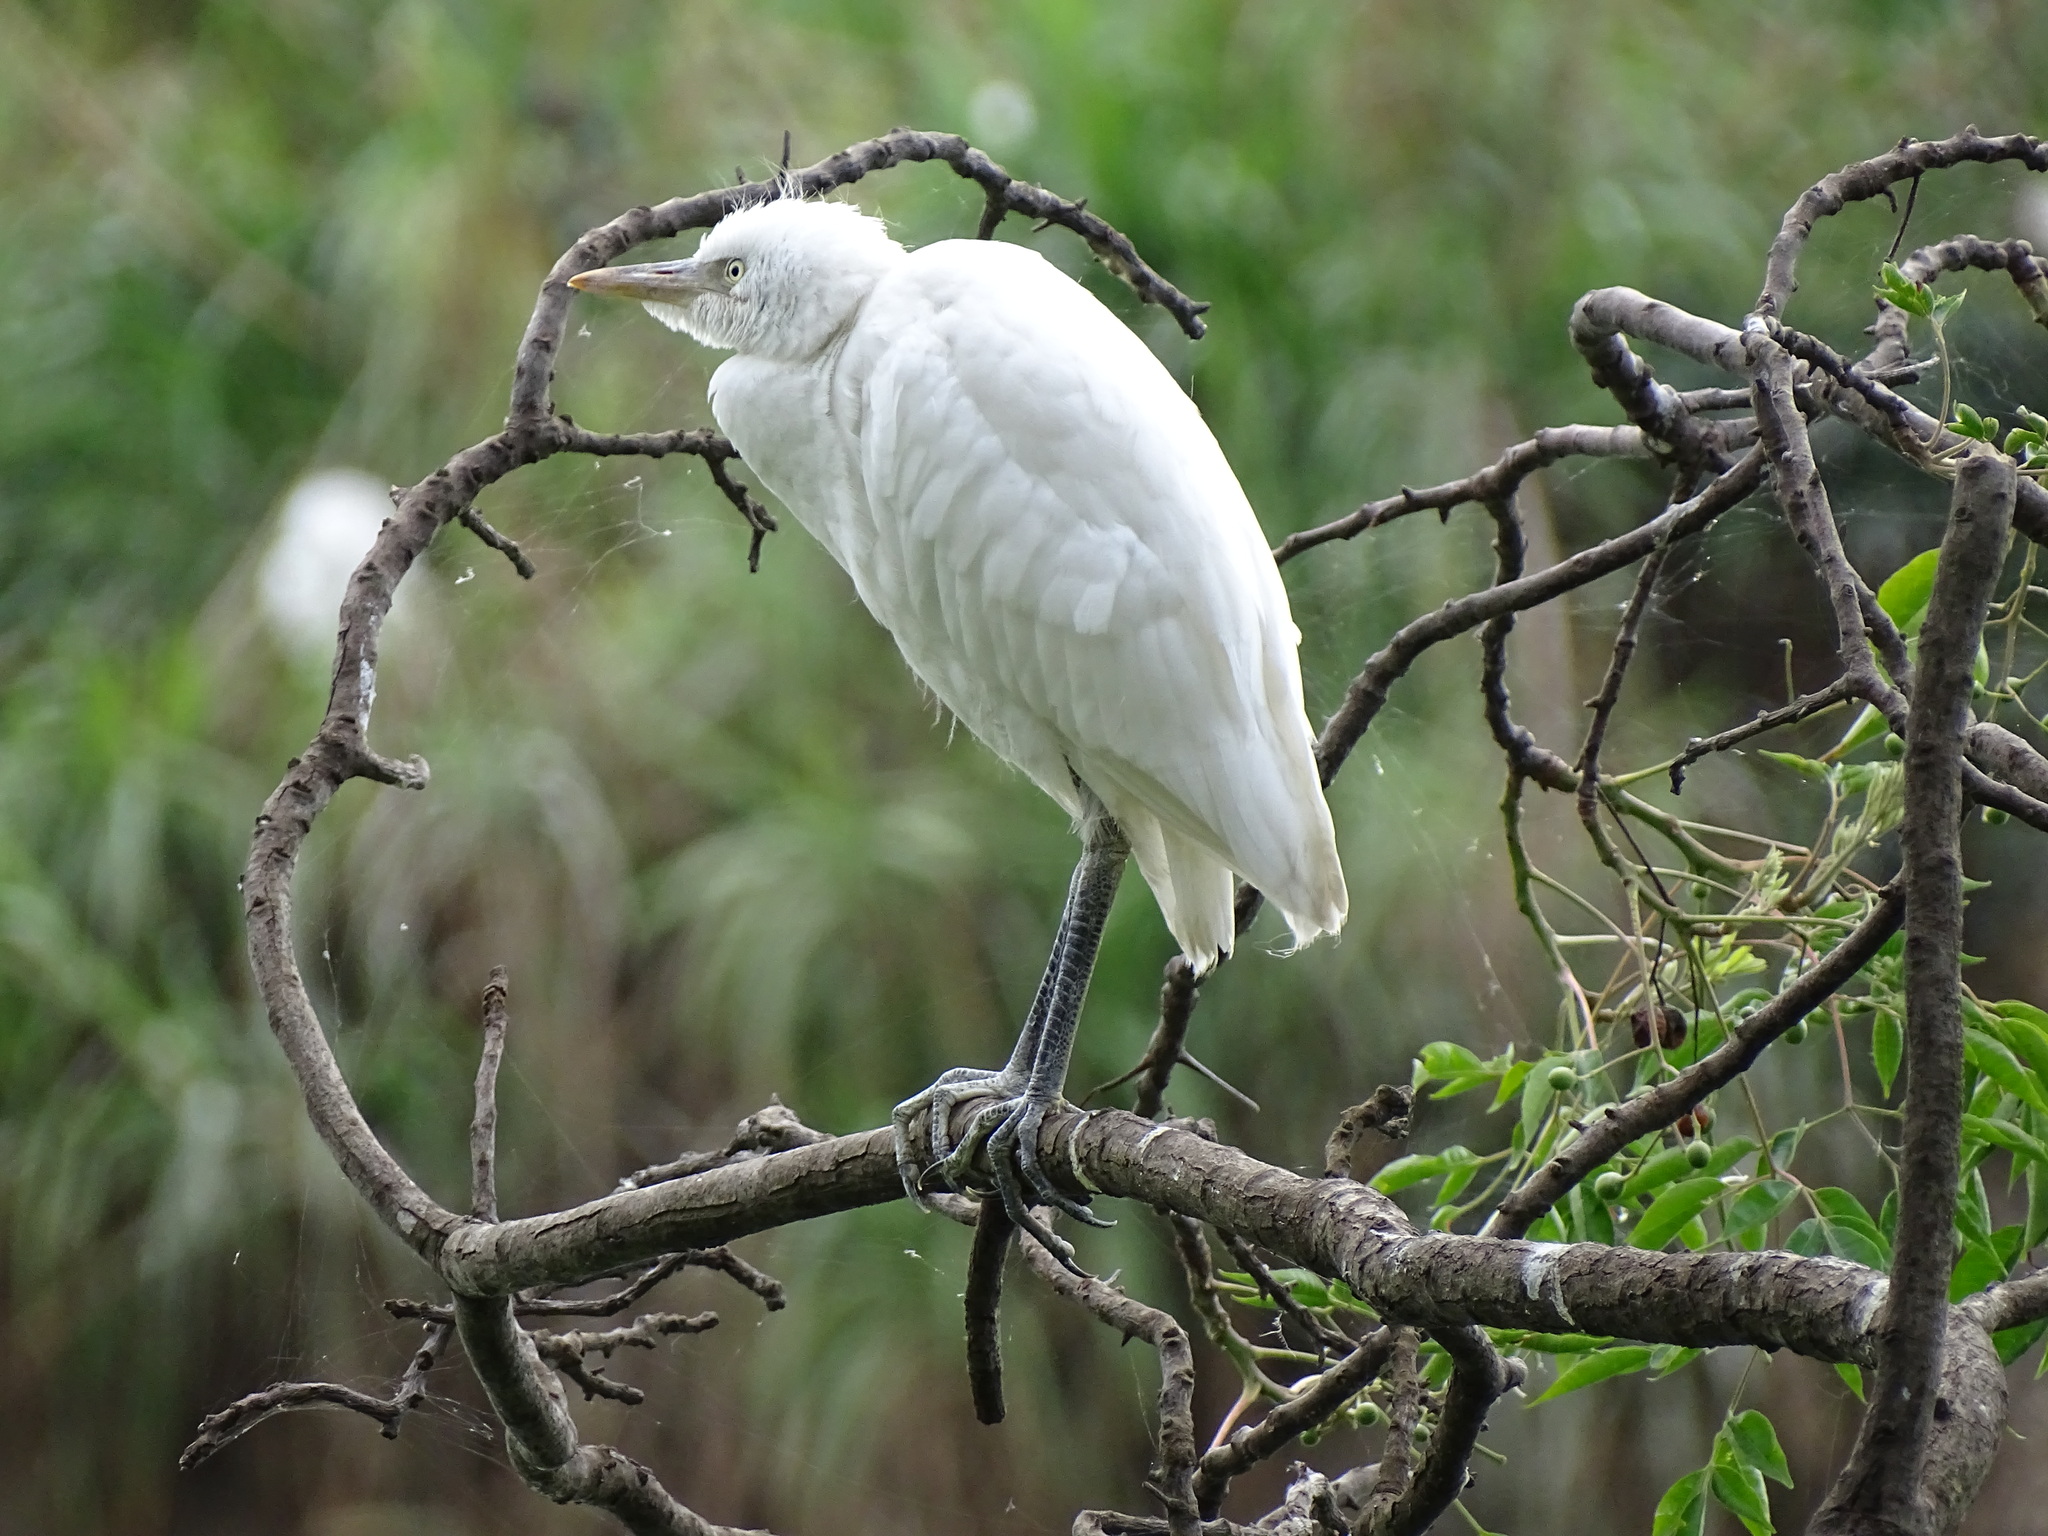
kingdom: Animalia
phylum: Chordata
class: Aves
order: Pelecaniformes
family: Ardeidae
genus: Bubulcus
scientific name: Bubulcus ibis
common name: Cattle egret
